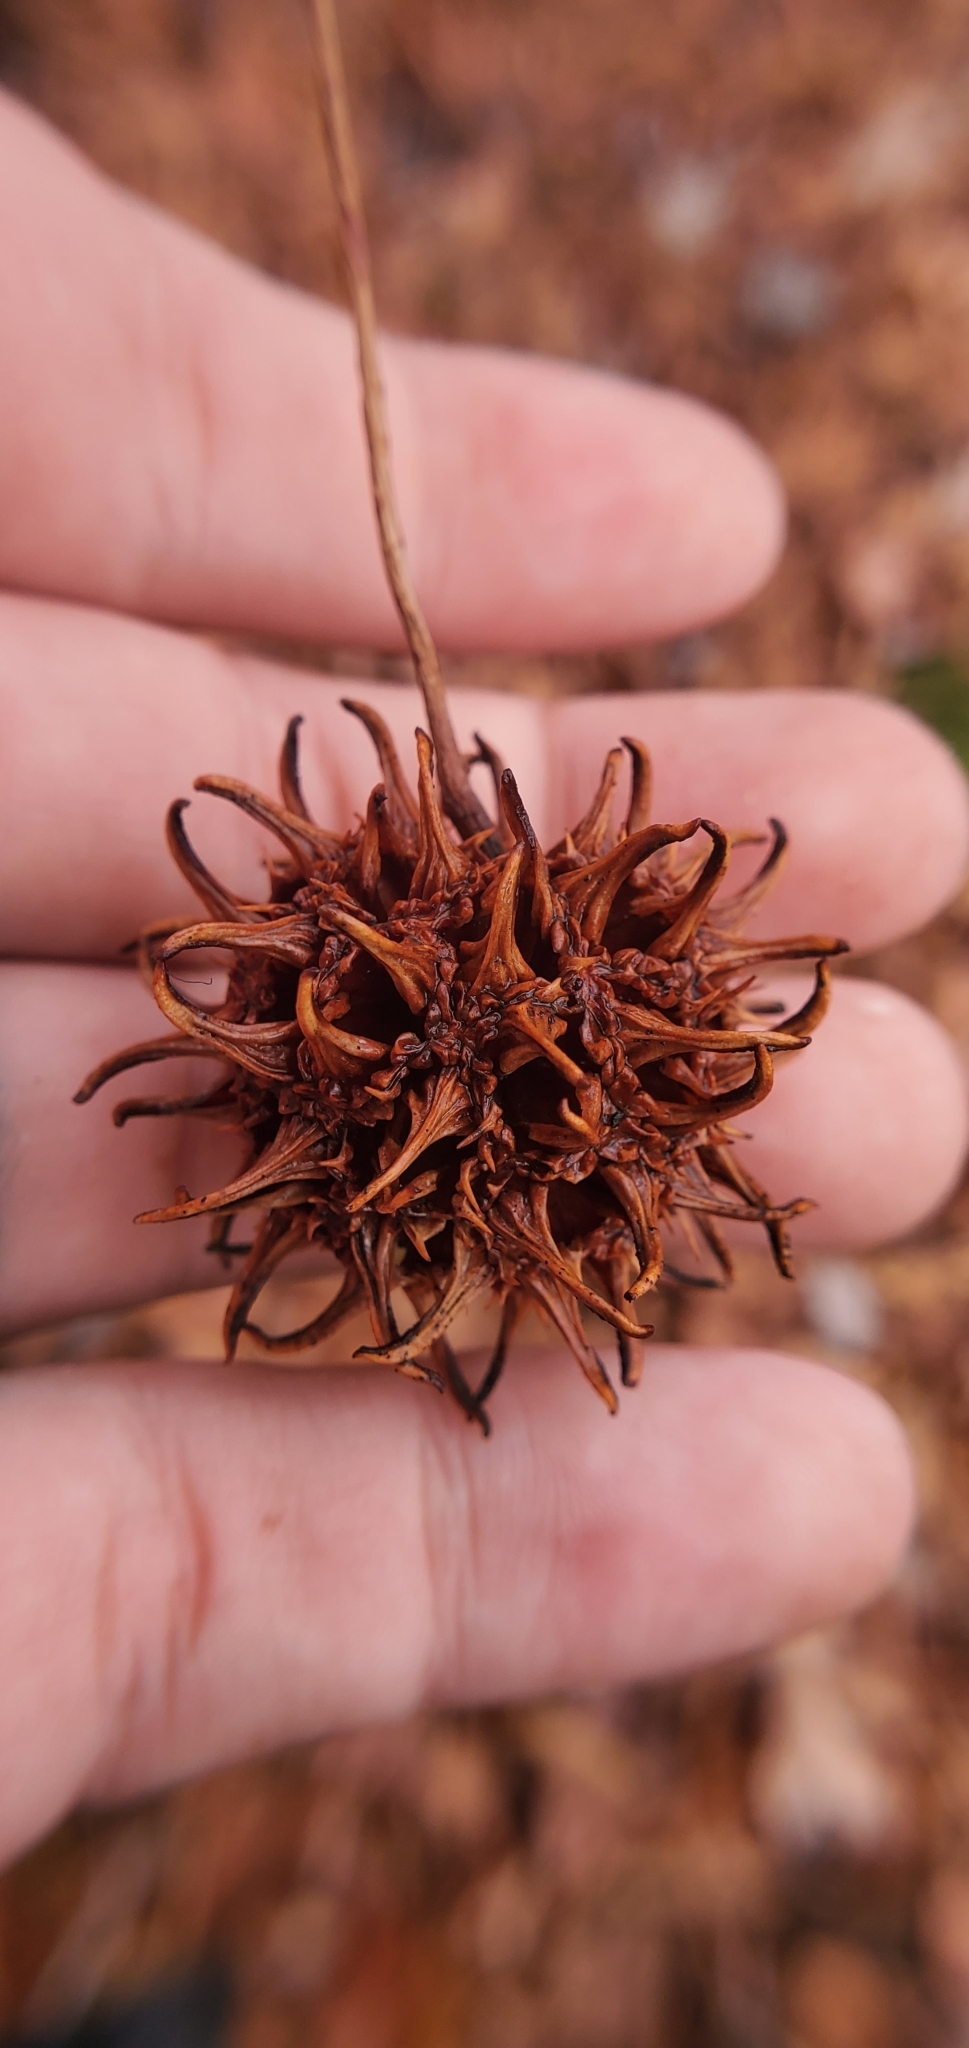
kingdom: Plantae
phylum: Tracheophyta
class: Magnoliopsida
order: Saxifragales
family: Altingiaceae
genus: Liquidambar
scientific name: Liquidambar styraciflua
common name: Sweet gum
